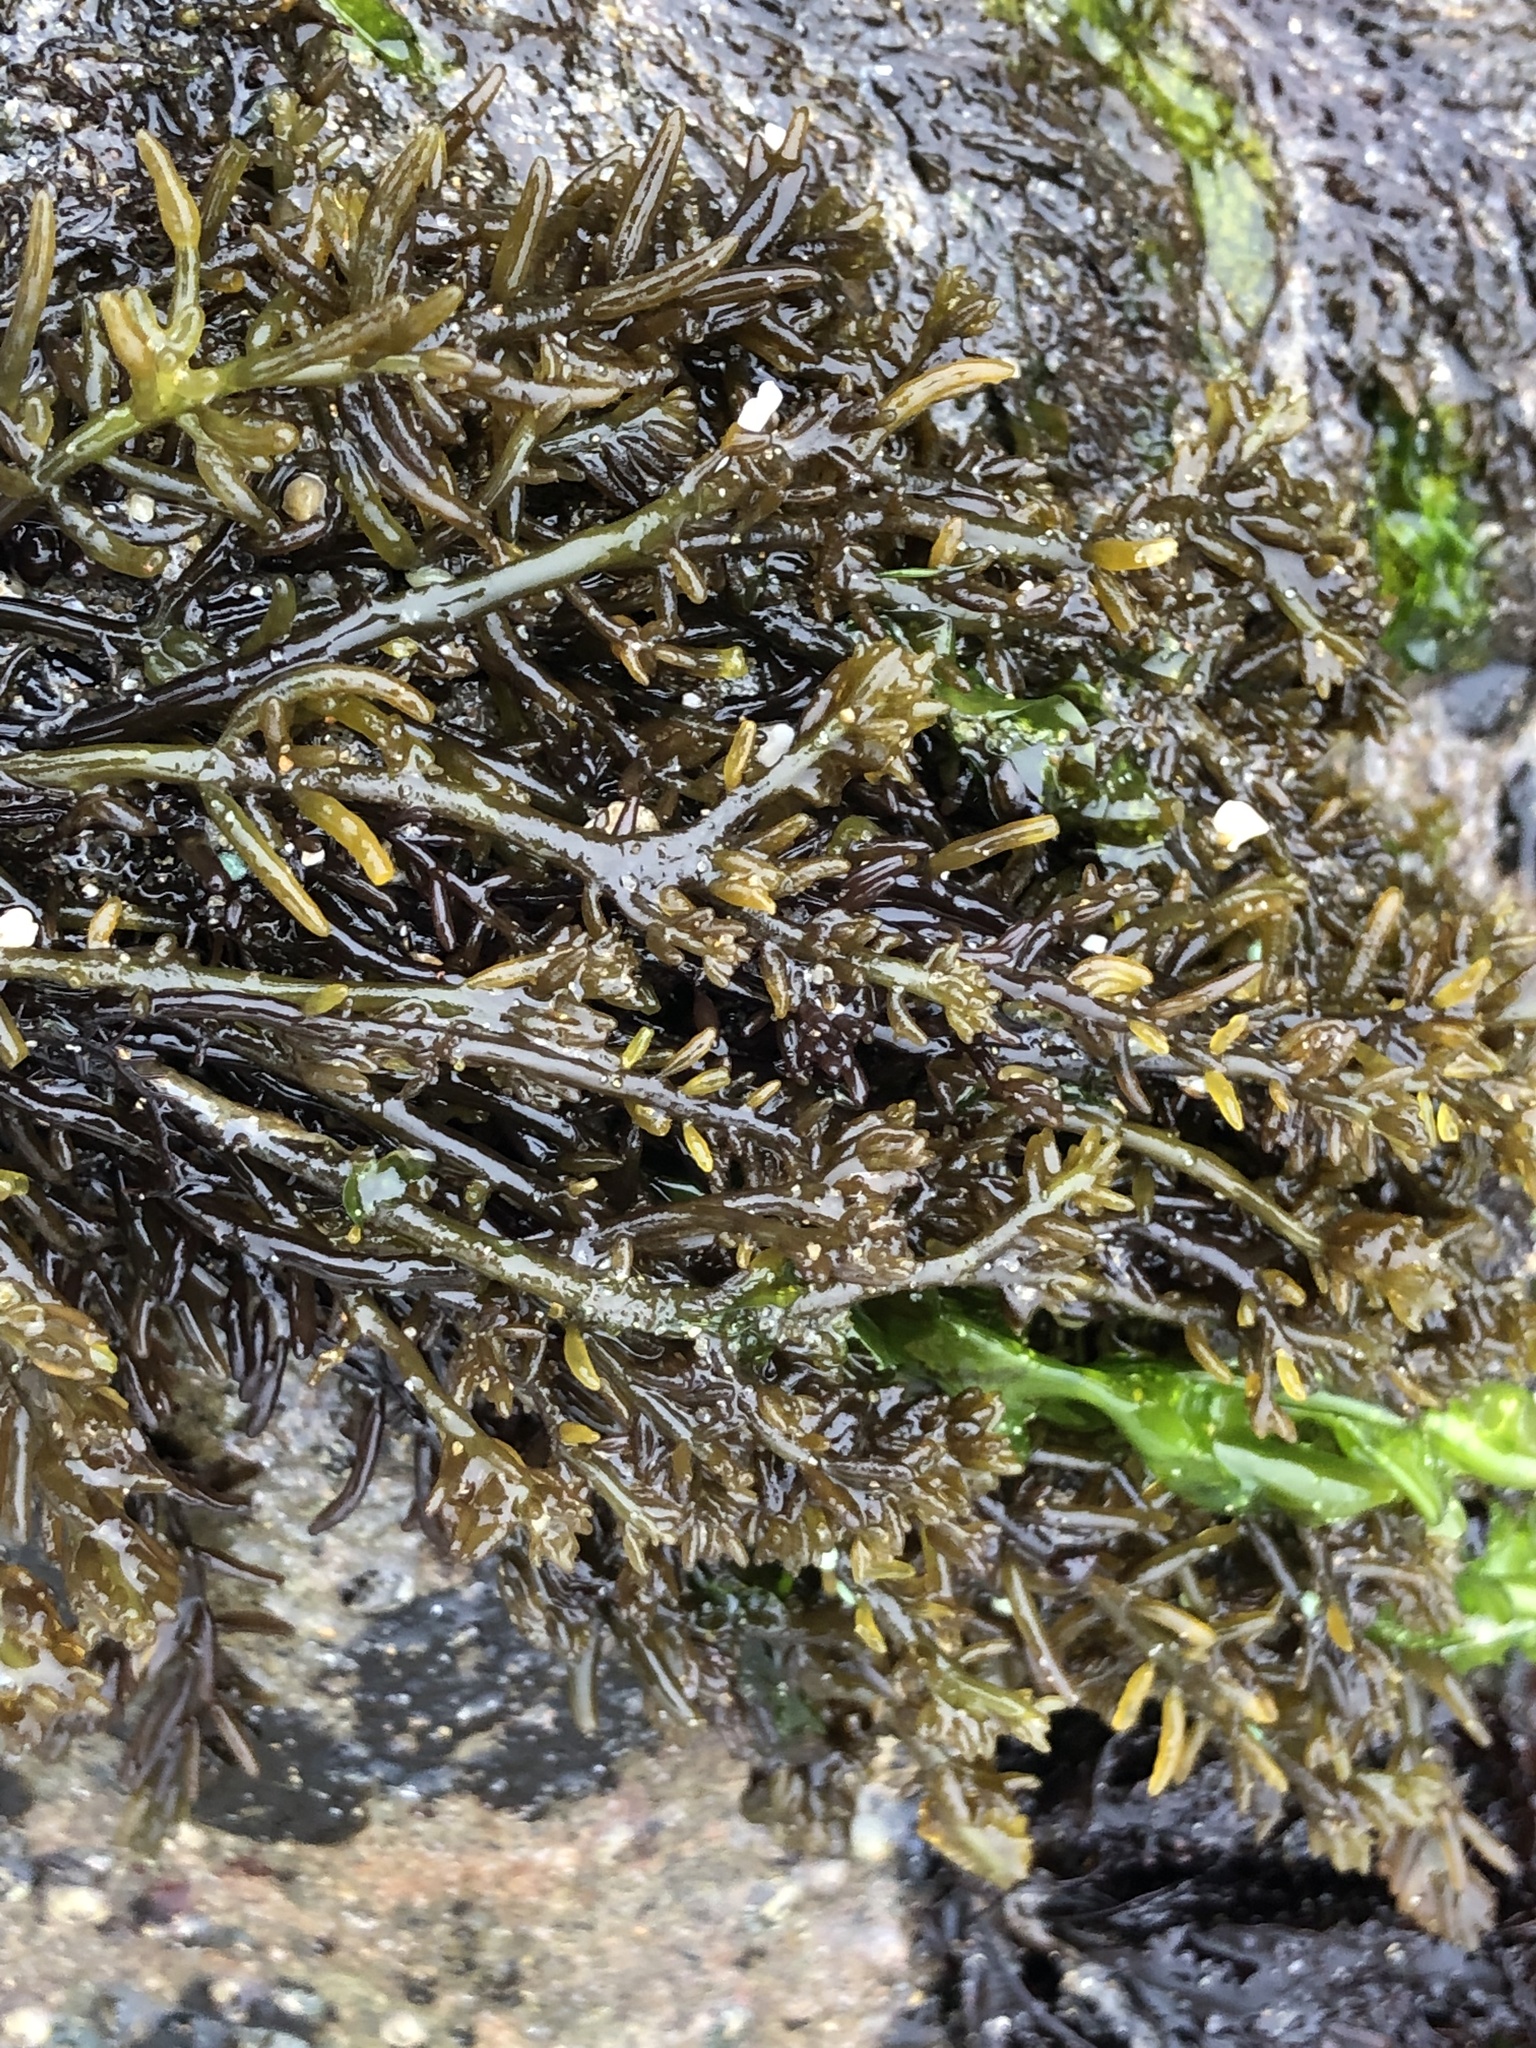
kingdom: Plantae
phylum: Rhodophyta
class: Florideophyceae
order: Rhodymeniales
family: Champiaceae
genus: Neogastroclonium
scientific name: Neogastroclonium subarticulatum
